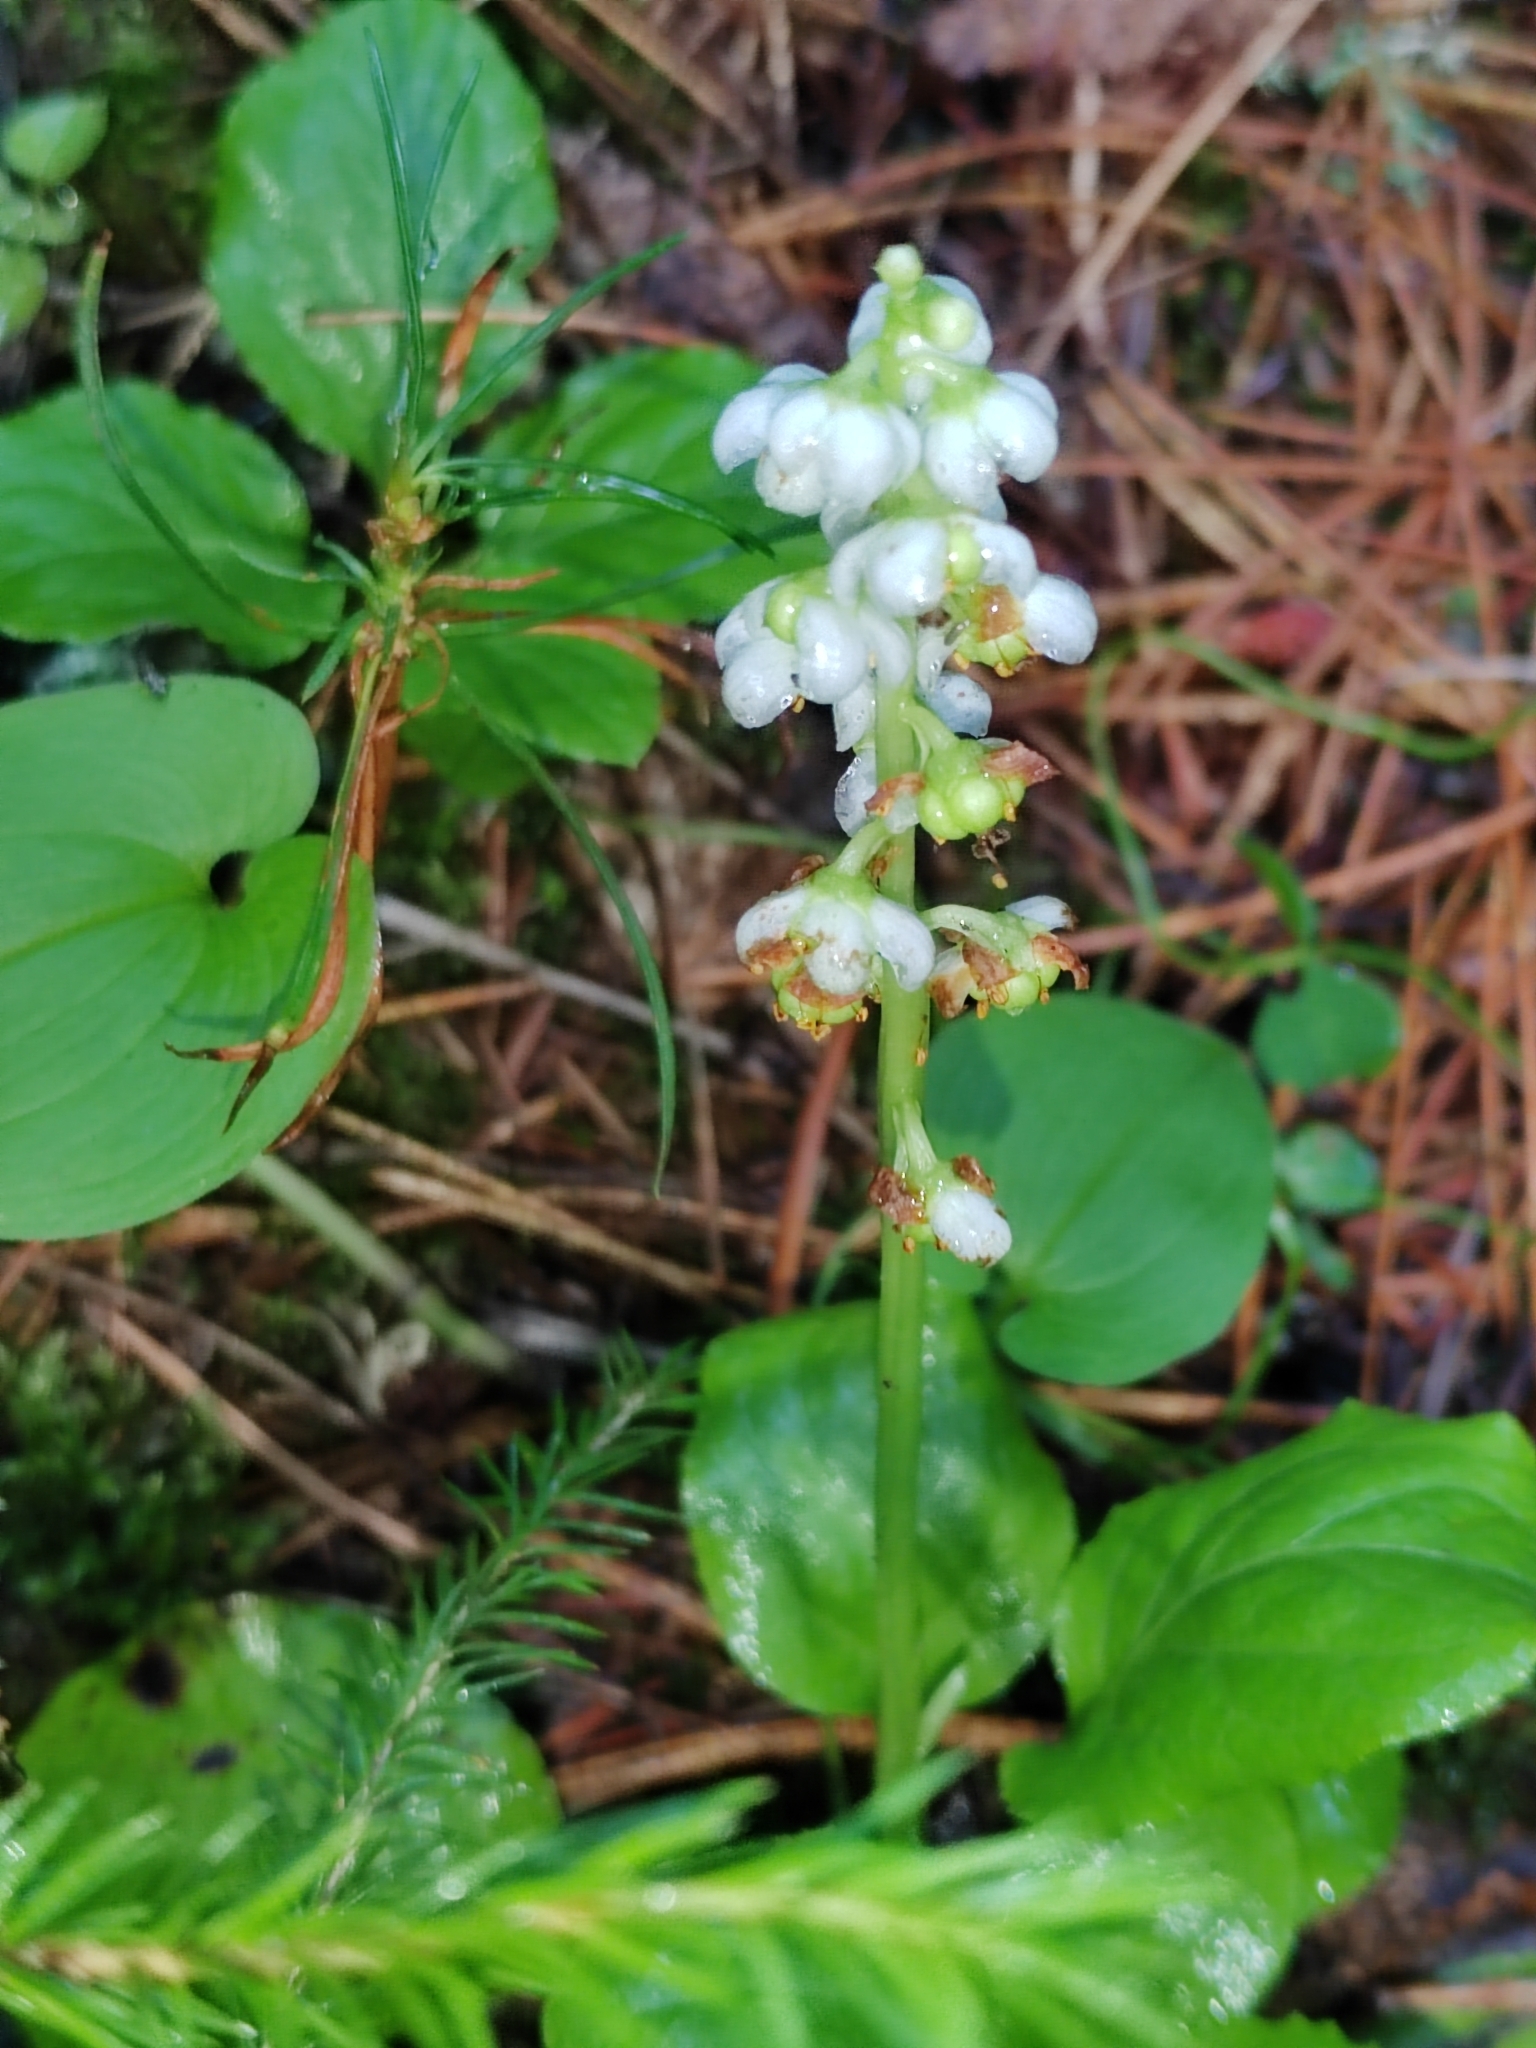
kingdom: Plantae
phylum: Tracheophyta
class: Magnoliopsida
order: Ericales
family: Ericaceae
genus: Pyrola
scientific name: Pyrola minor
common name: Common wintergreen
